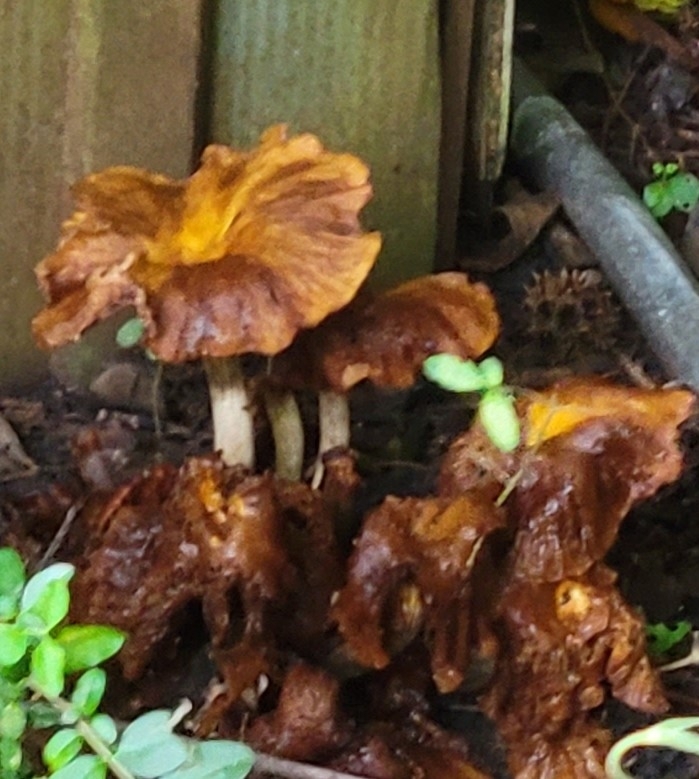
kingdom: Fungi
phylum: Basidiomycota
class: Agaricomycetes
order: Agaricales
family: Physalacriaceae
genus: Desarmillaria
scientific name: Desarmillaria caespitosa
